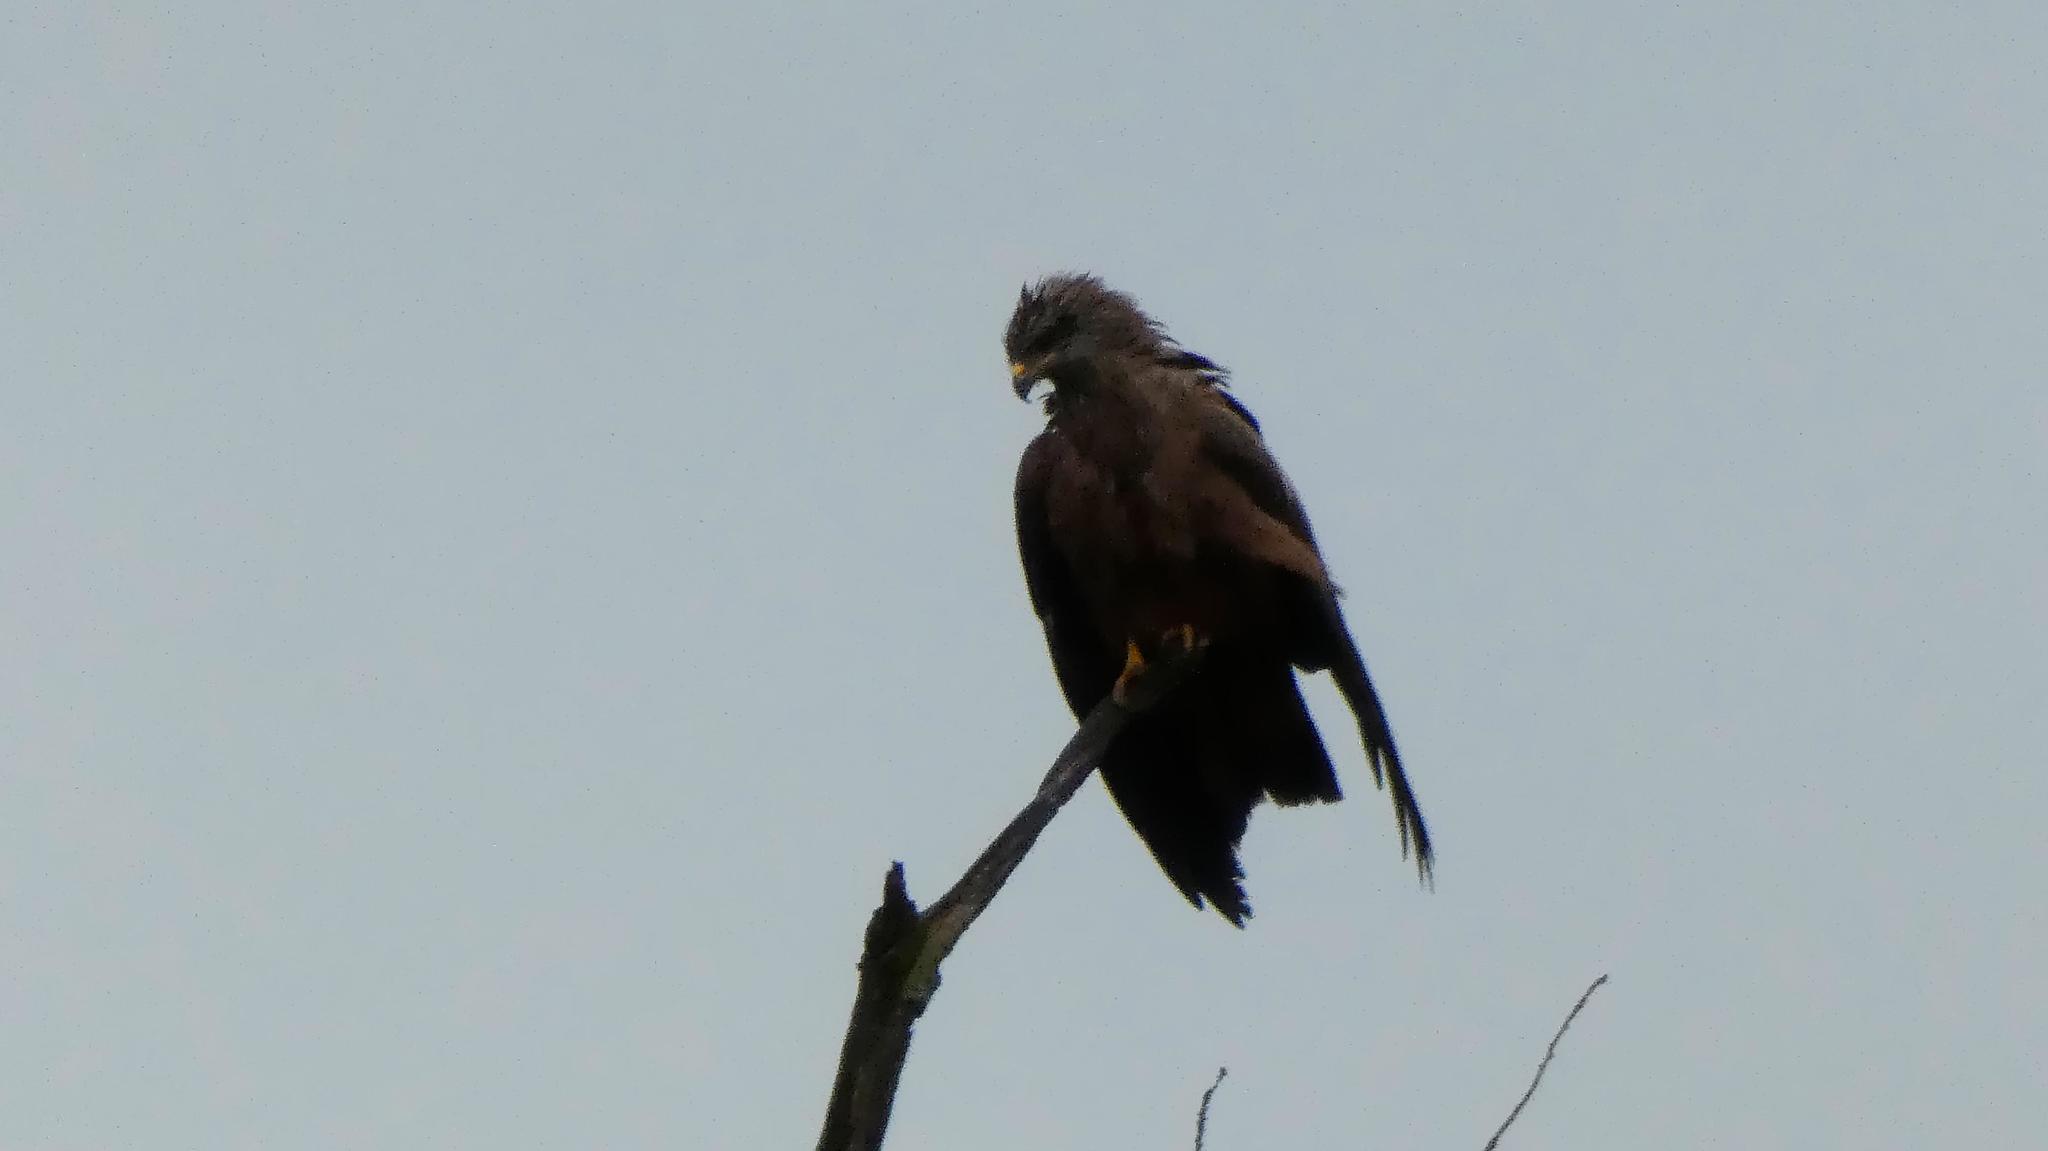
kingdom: Animalia
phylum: Chordata
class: Aves
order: Accipitriformes
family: Accipitridae
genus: Milvus
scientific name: Milvus migrans
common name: Black kite
